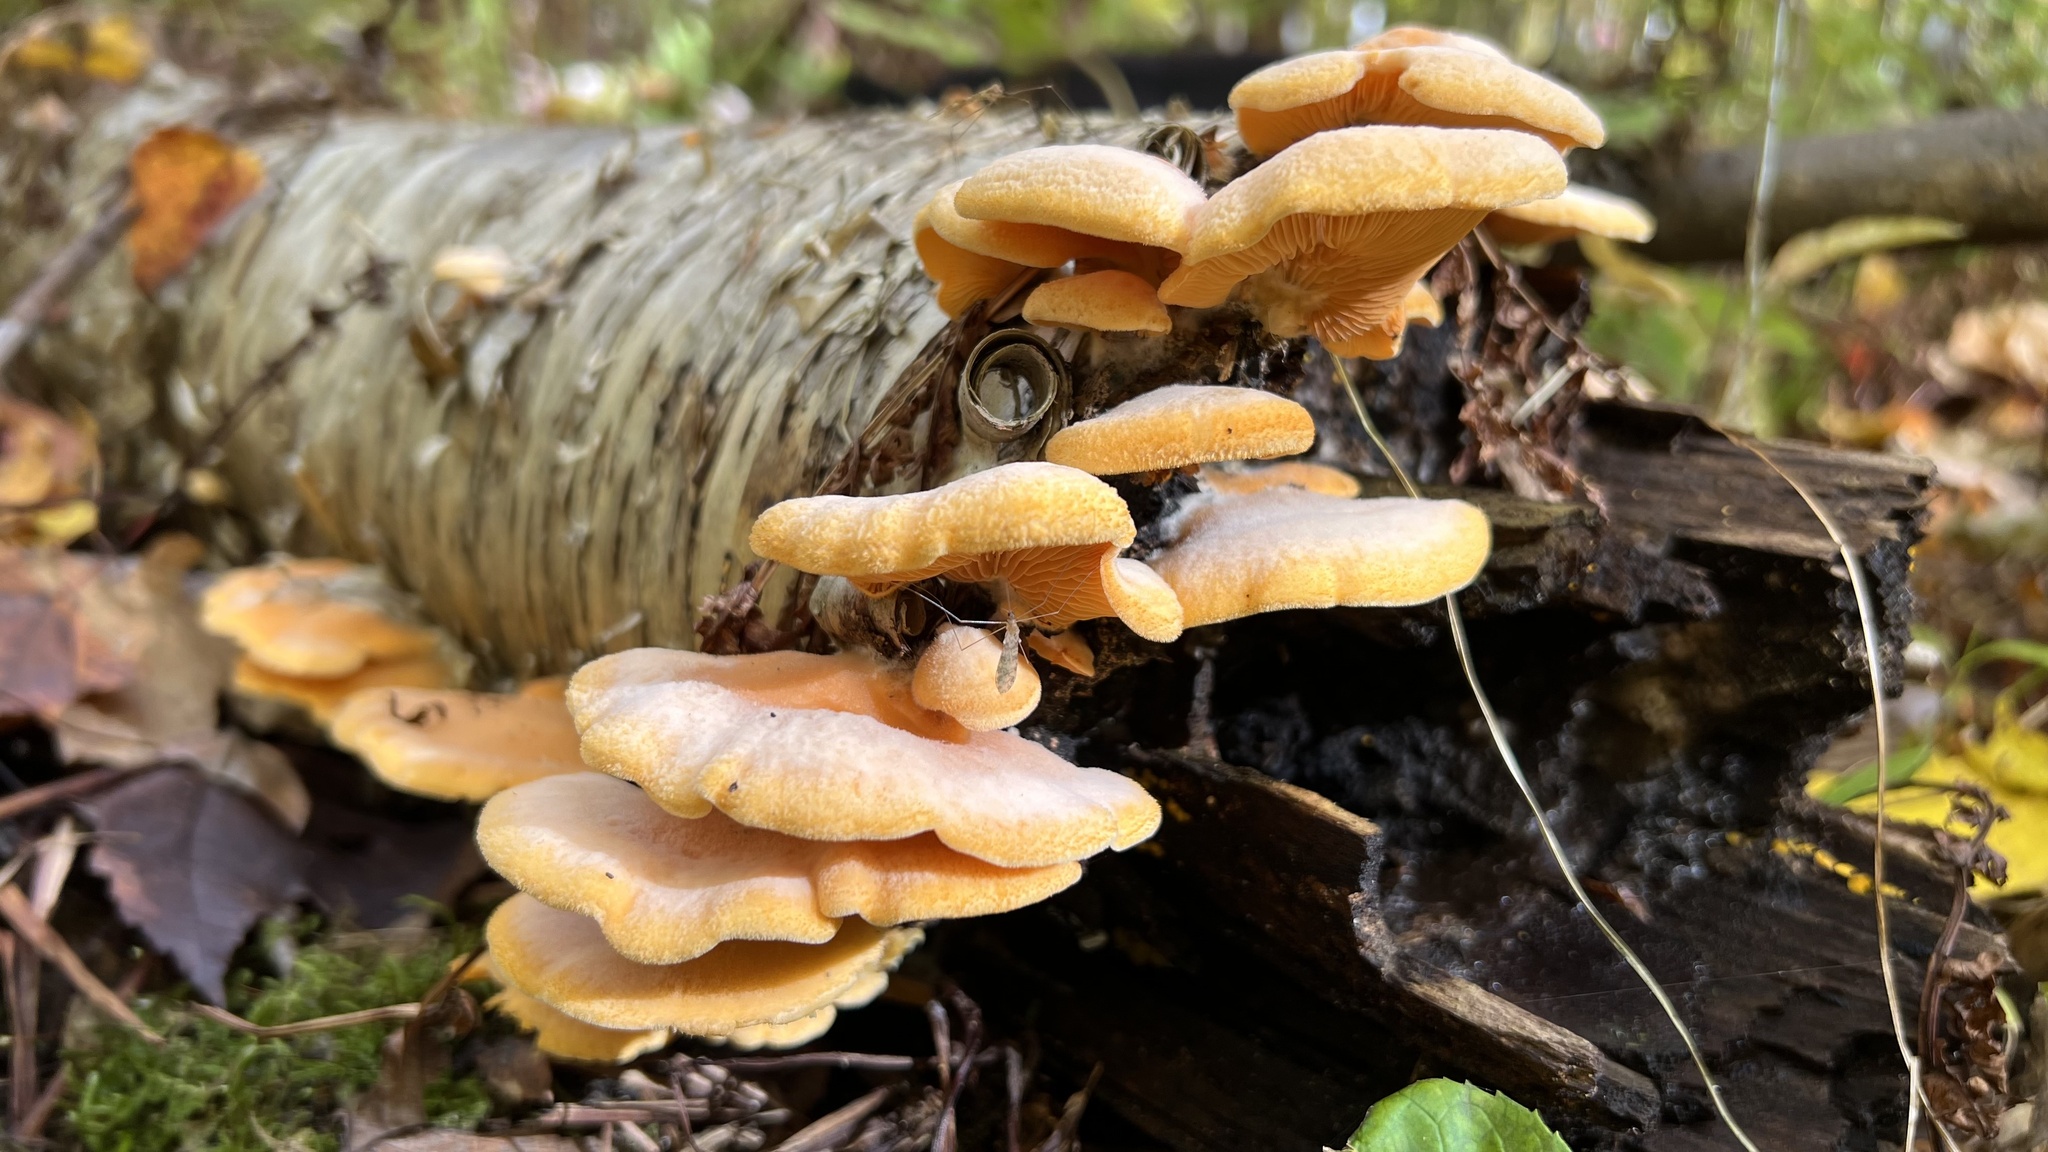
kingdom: Fungi
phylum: Basidiomycota
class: Agaricomycetes
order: Agaricales
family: Phyllotopsidaceae
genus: Phyllotopsis
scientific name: Phyllotopsis nidulans
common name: Orange mock oyster
